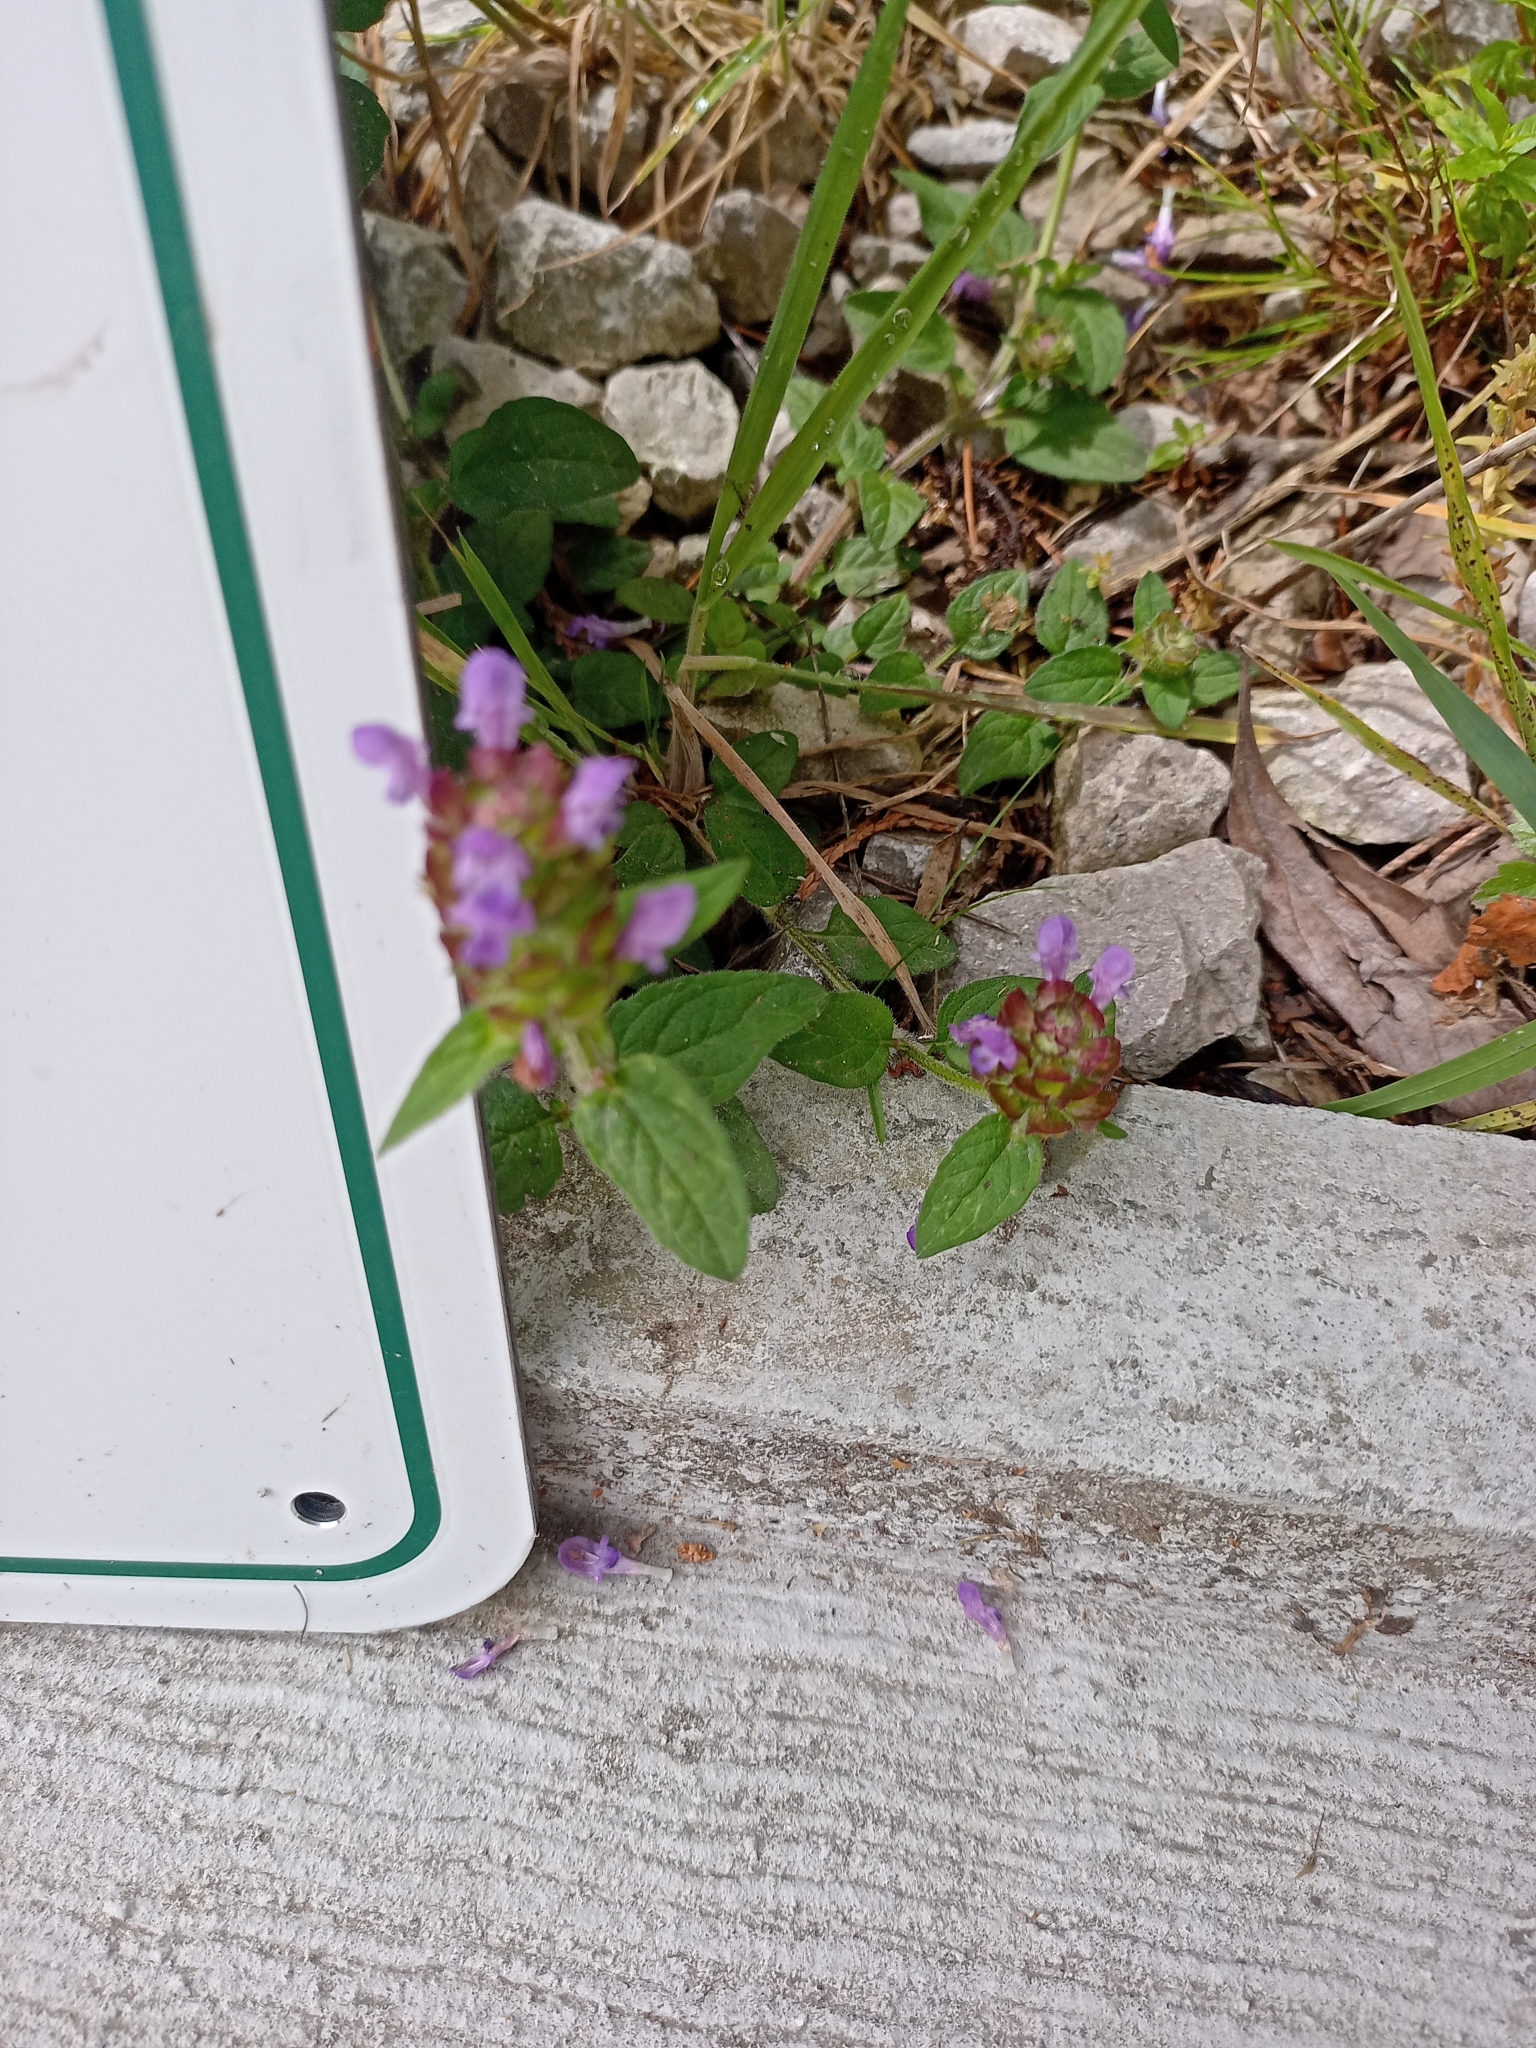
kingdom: Plantae
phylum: Tracheophyta
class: Magnoliopsida
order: Lamiales
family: Lamiaceae
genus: Prunella
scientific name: Prunella vulgaris
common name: Heal-all
